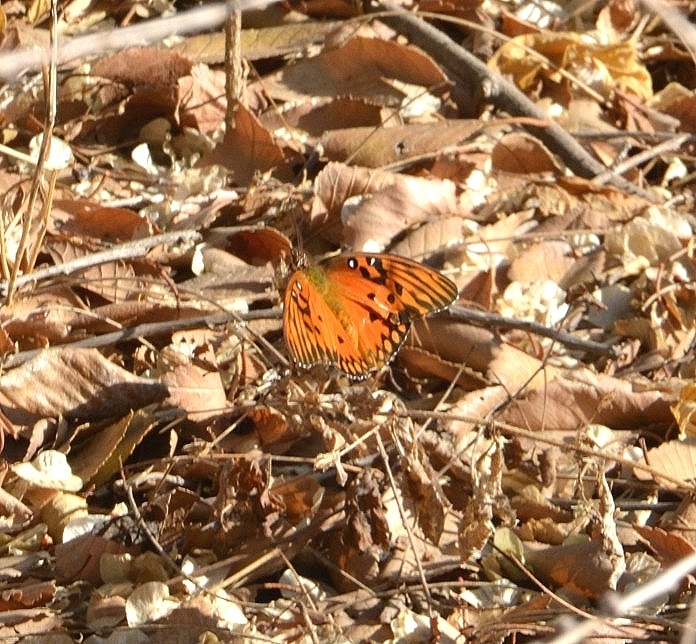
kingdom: Animalia
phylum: Arthropoda
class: Insecta
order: Lepidoptera
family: Nymphalidae
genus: Dione
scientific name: Dione vanillae
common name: Gulf fritillary
